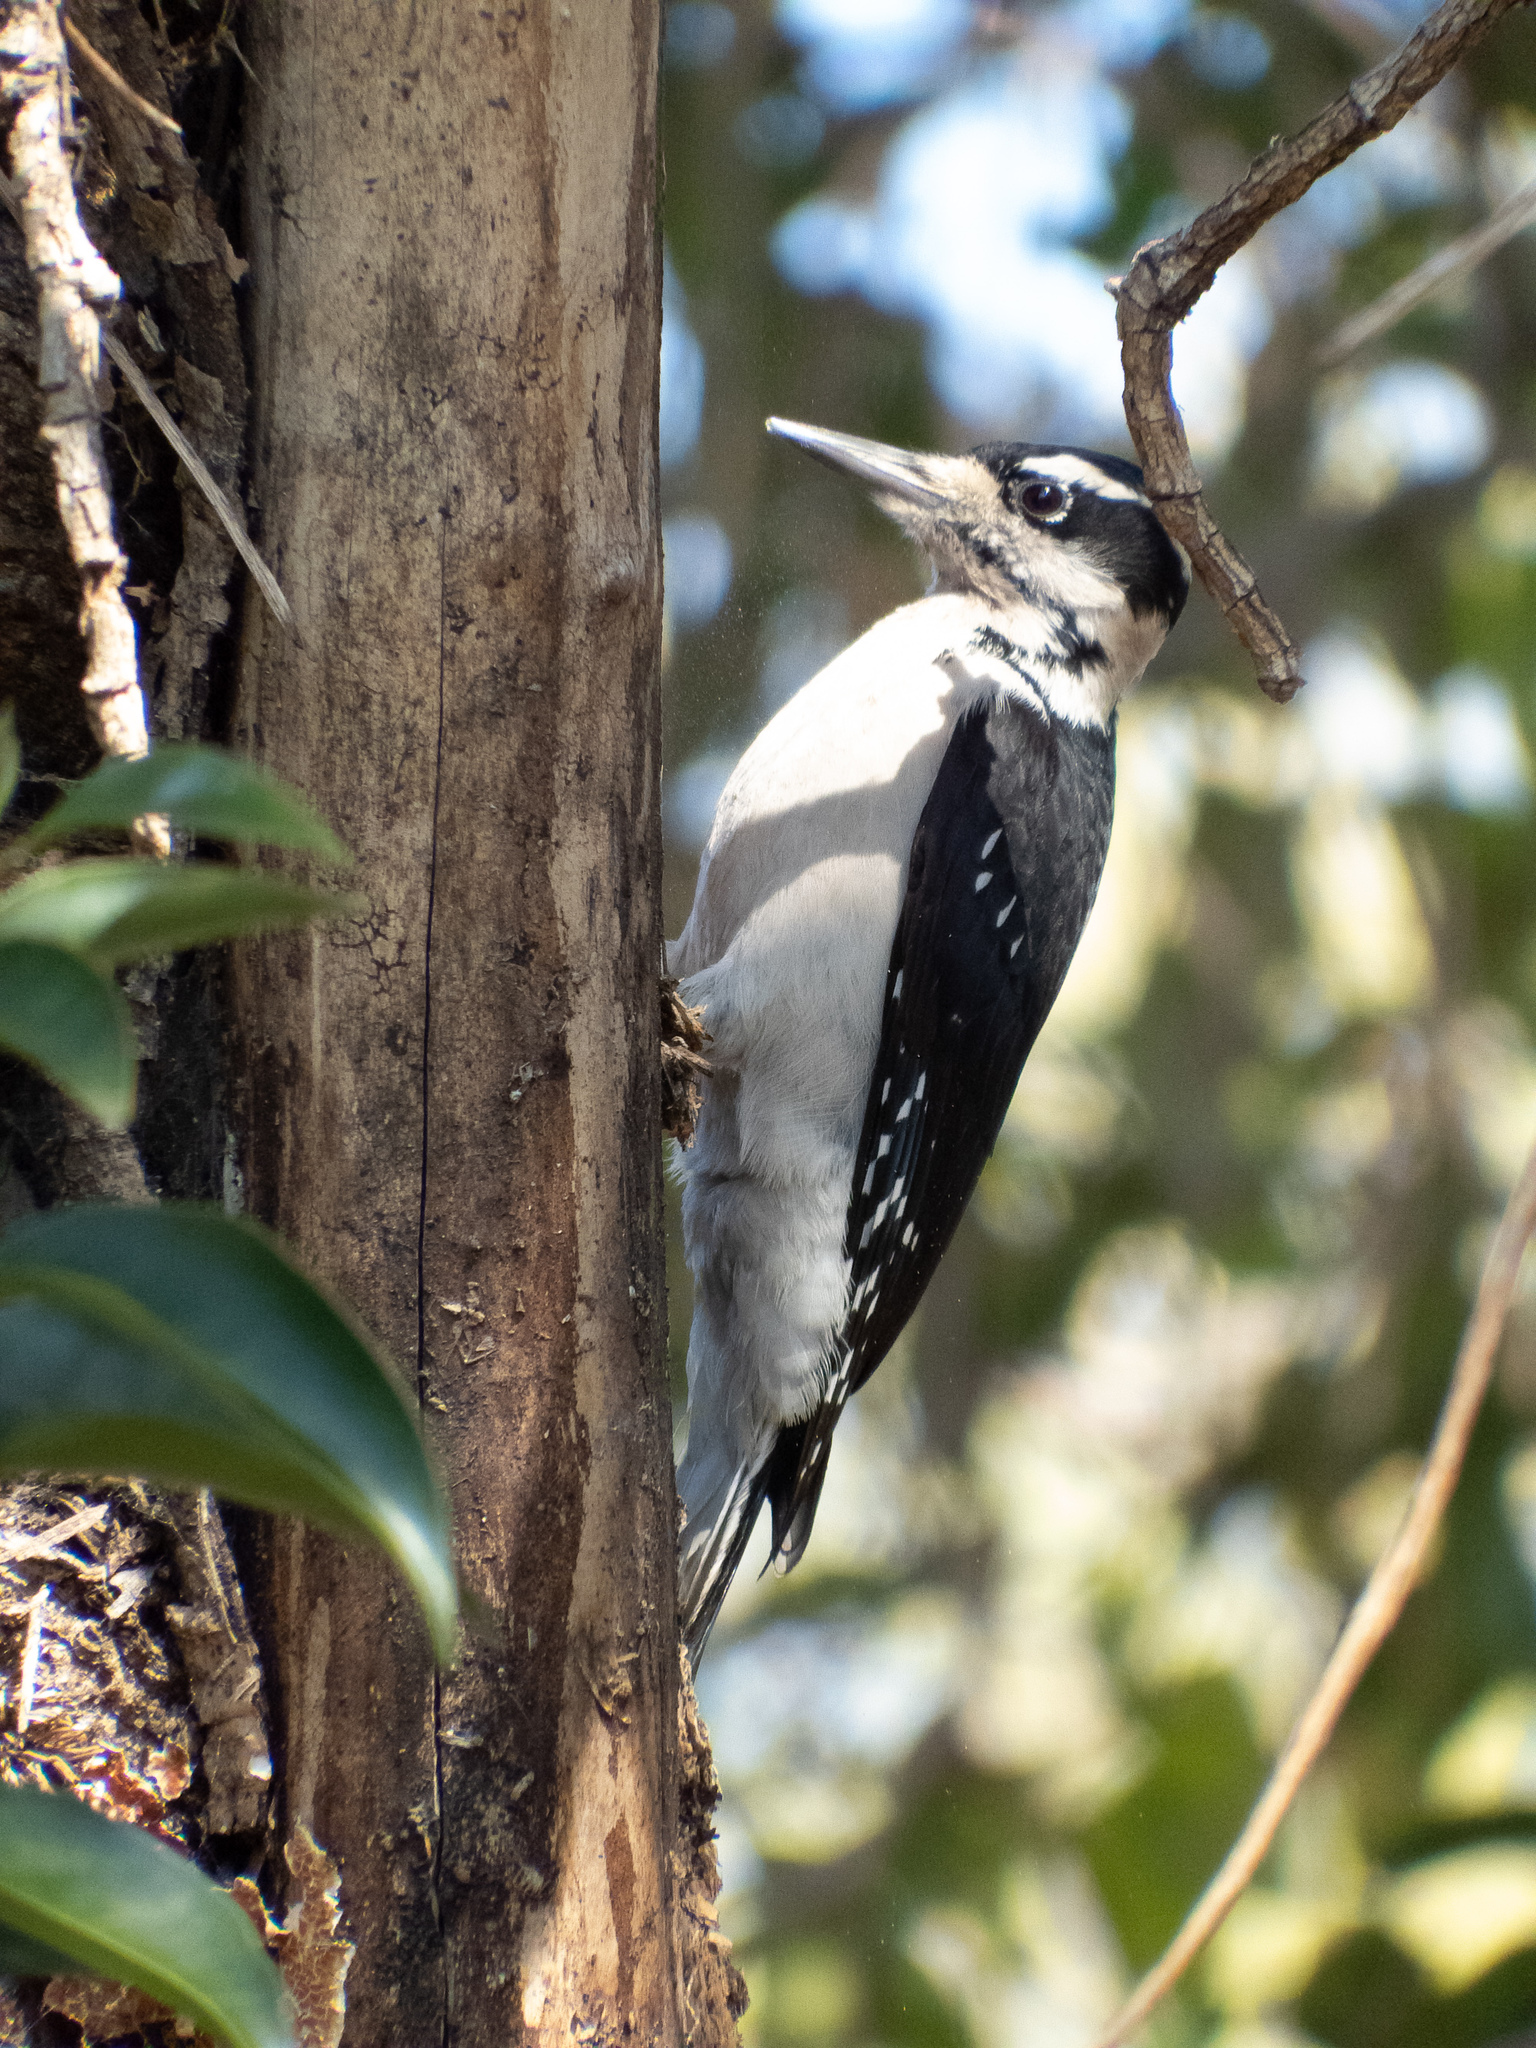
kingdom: Animalia
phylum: Chordata
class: Aves
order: Piciformes
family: Picidae
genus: Leuconotopicus
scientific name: Leuconotopicus villosus
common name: Hairy woodpecker
